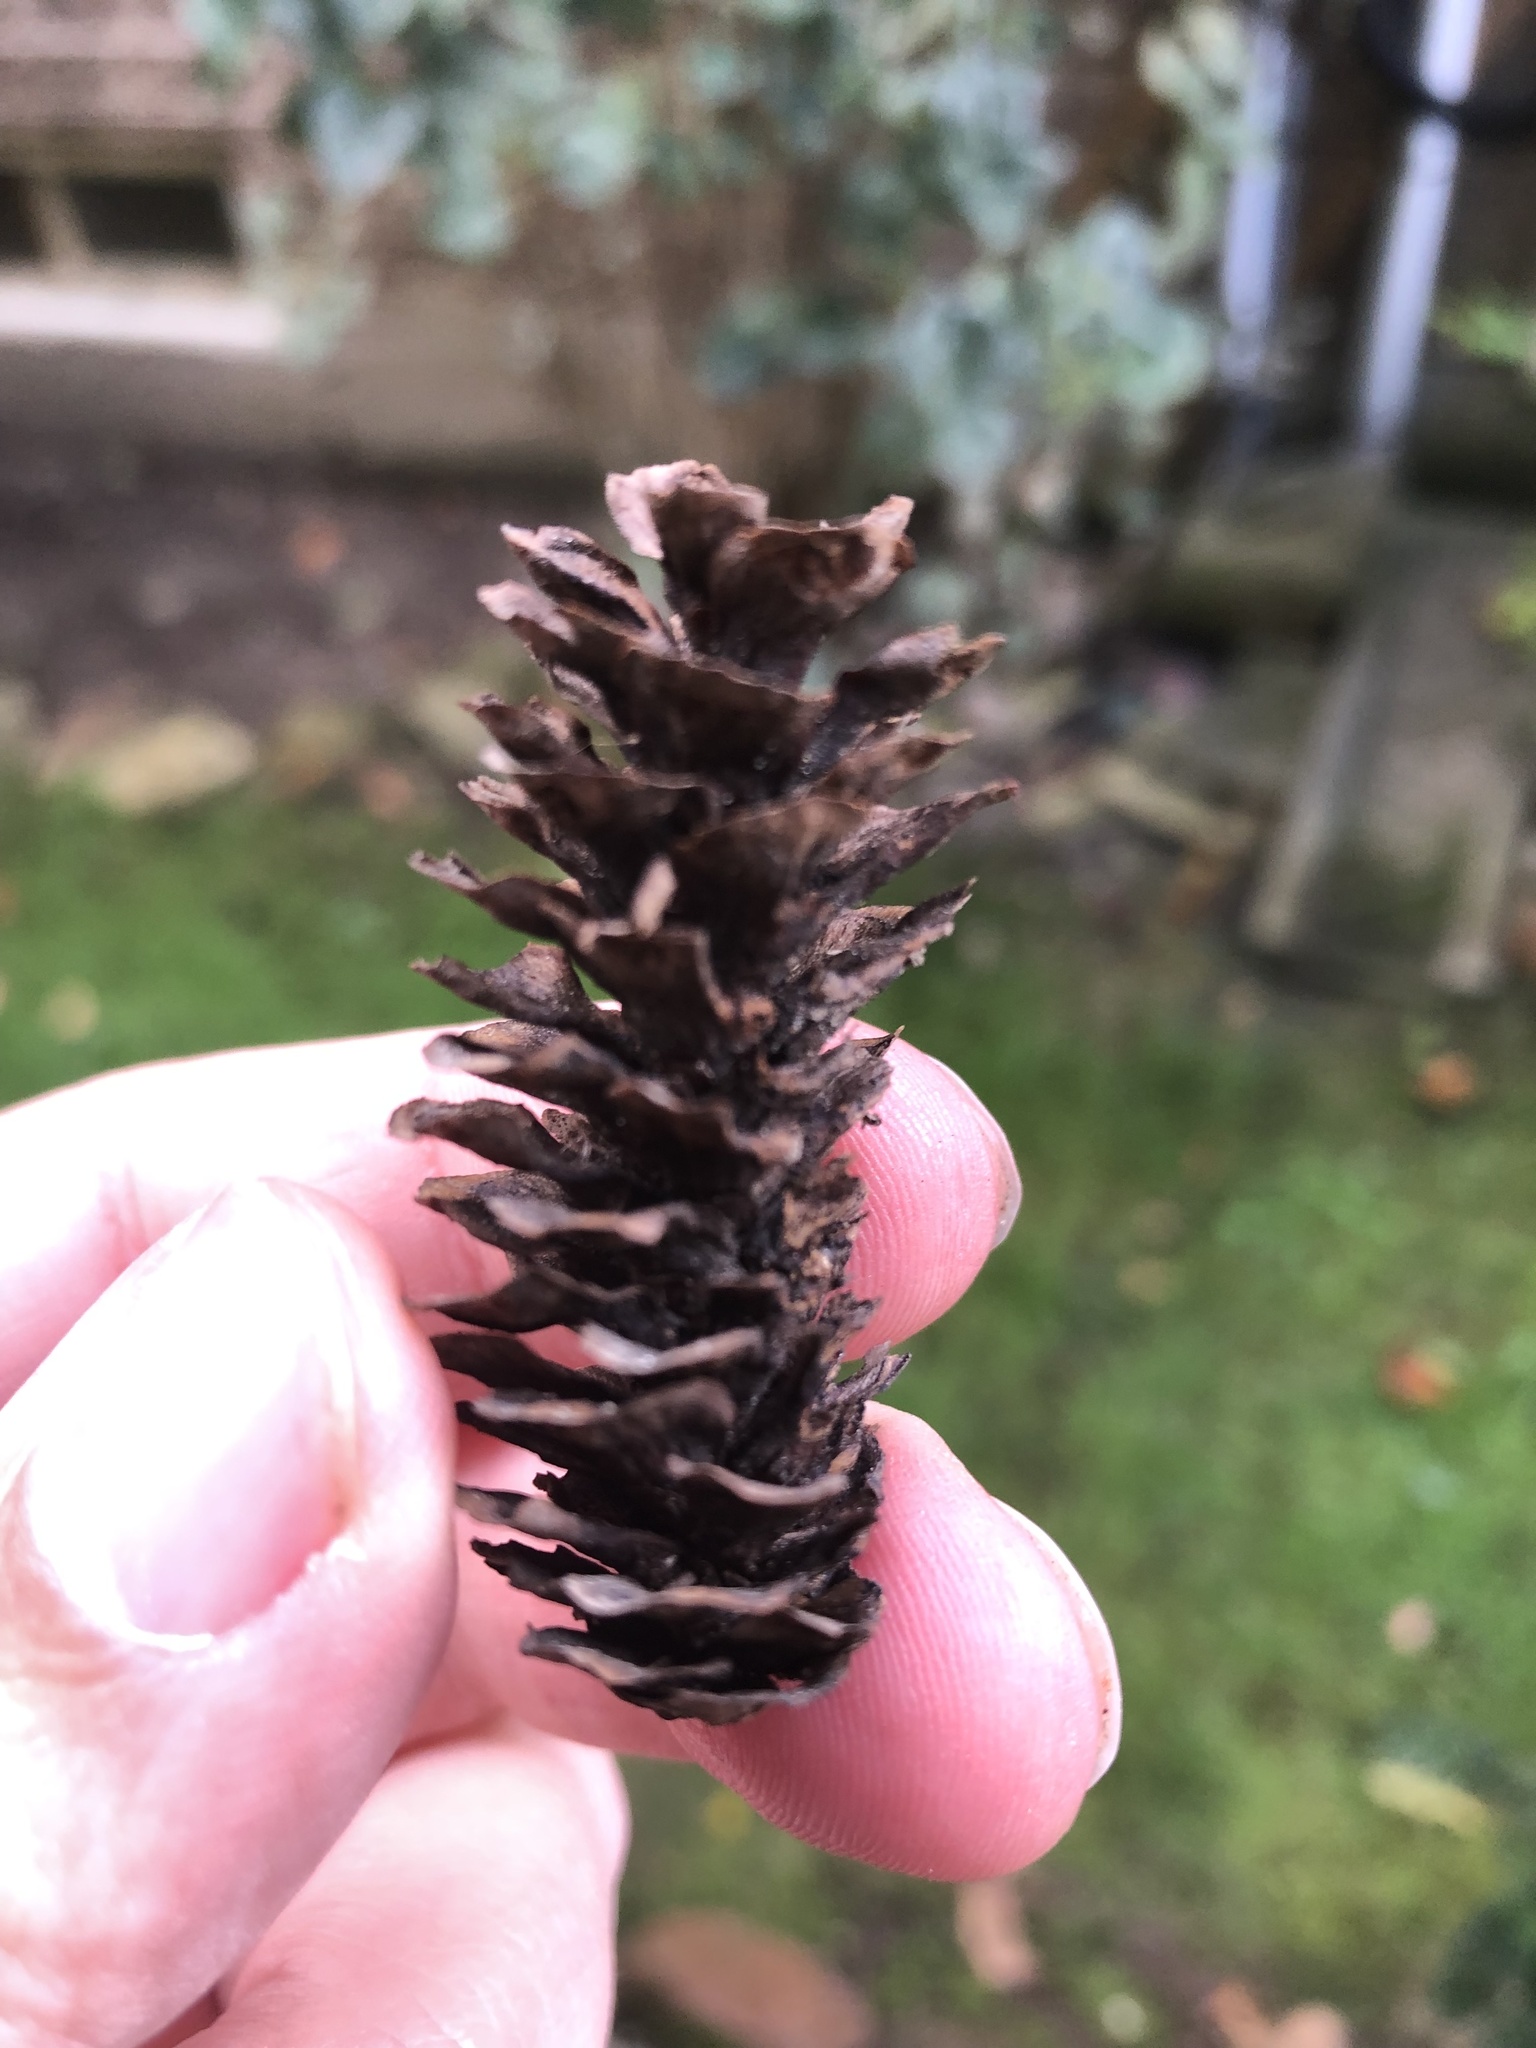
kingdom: Plantae
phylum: Tracheophyta
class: Pinopsida
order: Pinales
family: Pinaceae
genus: Picea
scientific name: Picea glauca
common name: White spruce
